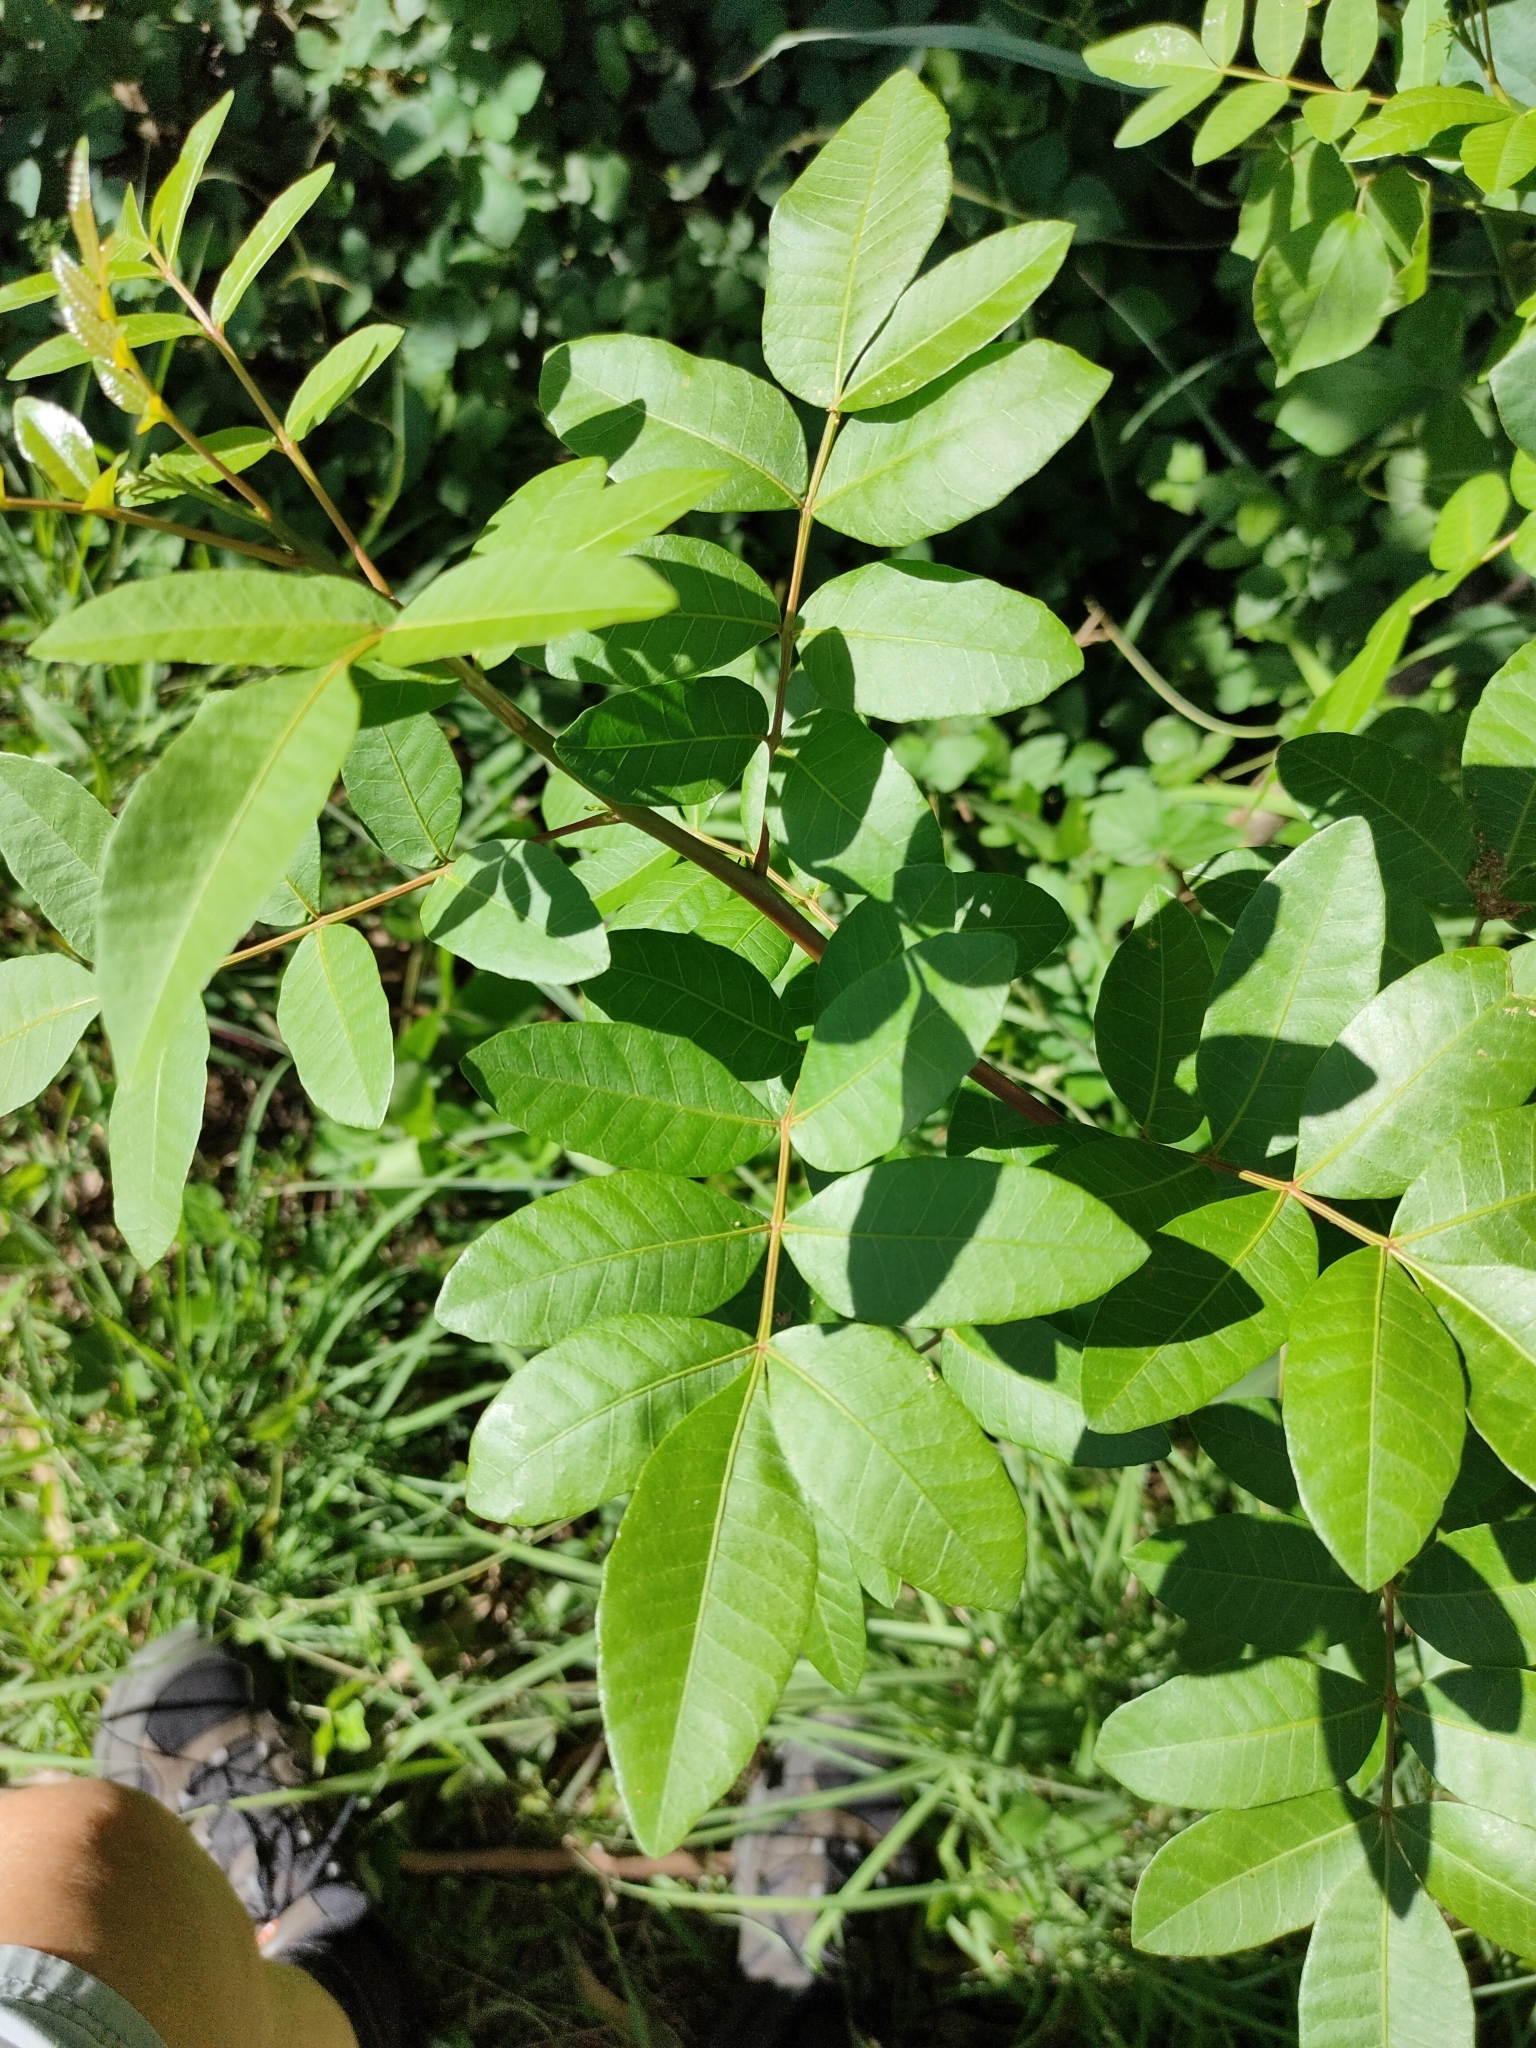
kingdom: Plantae
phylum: Tracheophyta
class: Magnoliopsida
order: Sapindales
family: Anacardiaceae
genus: Schinus
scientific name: Schinus terebinthifolia
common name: Brazilian peppertree
